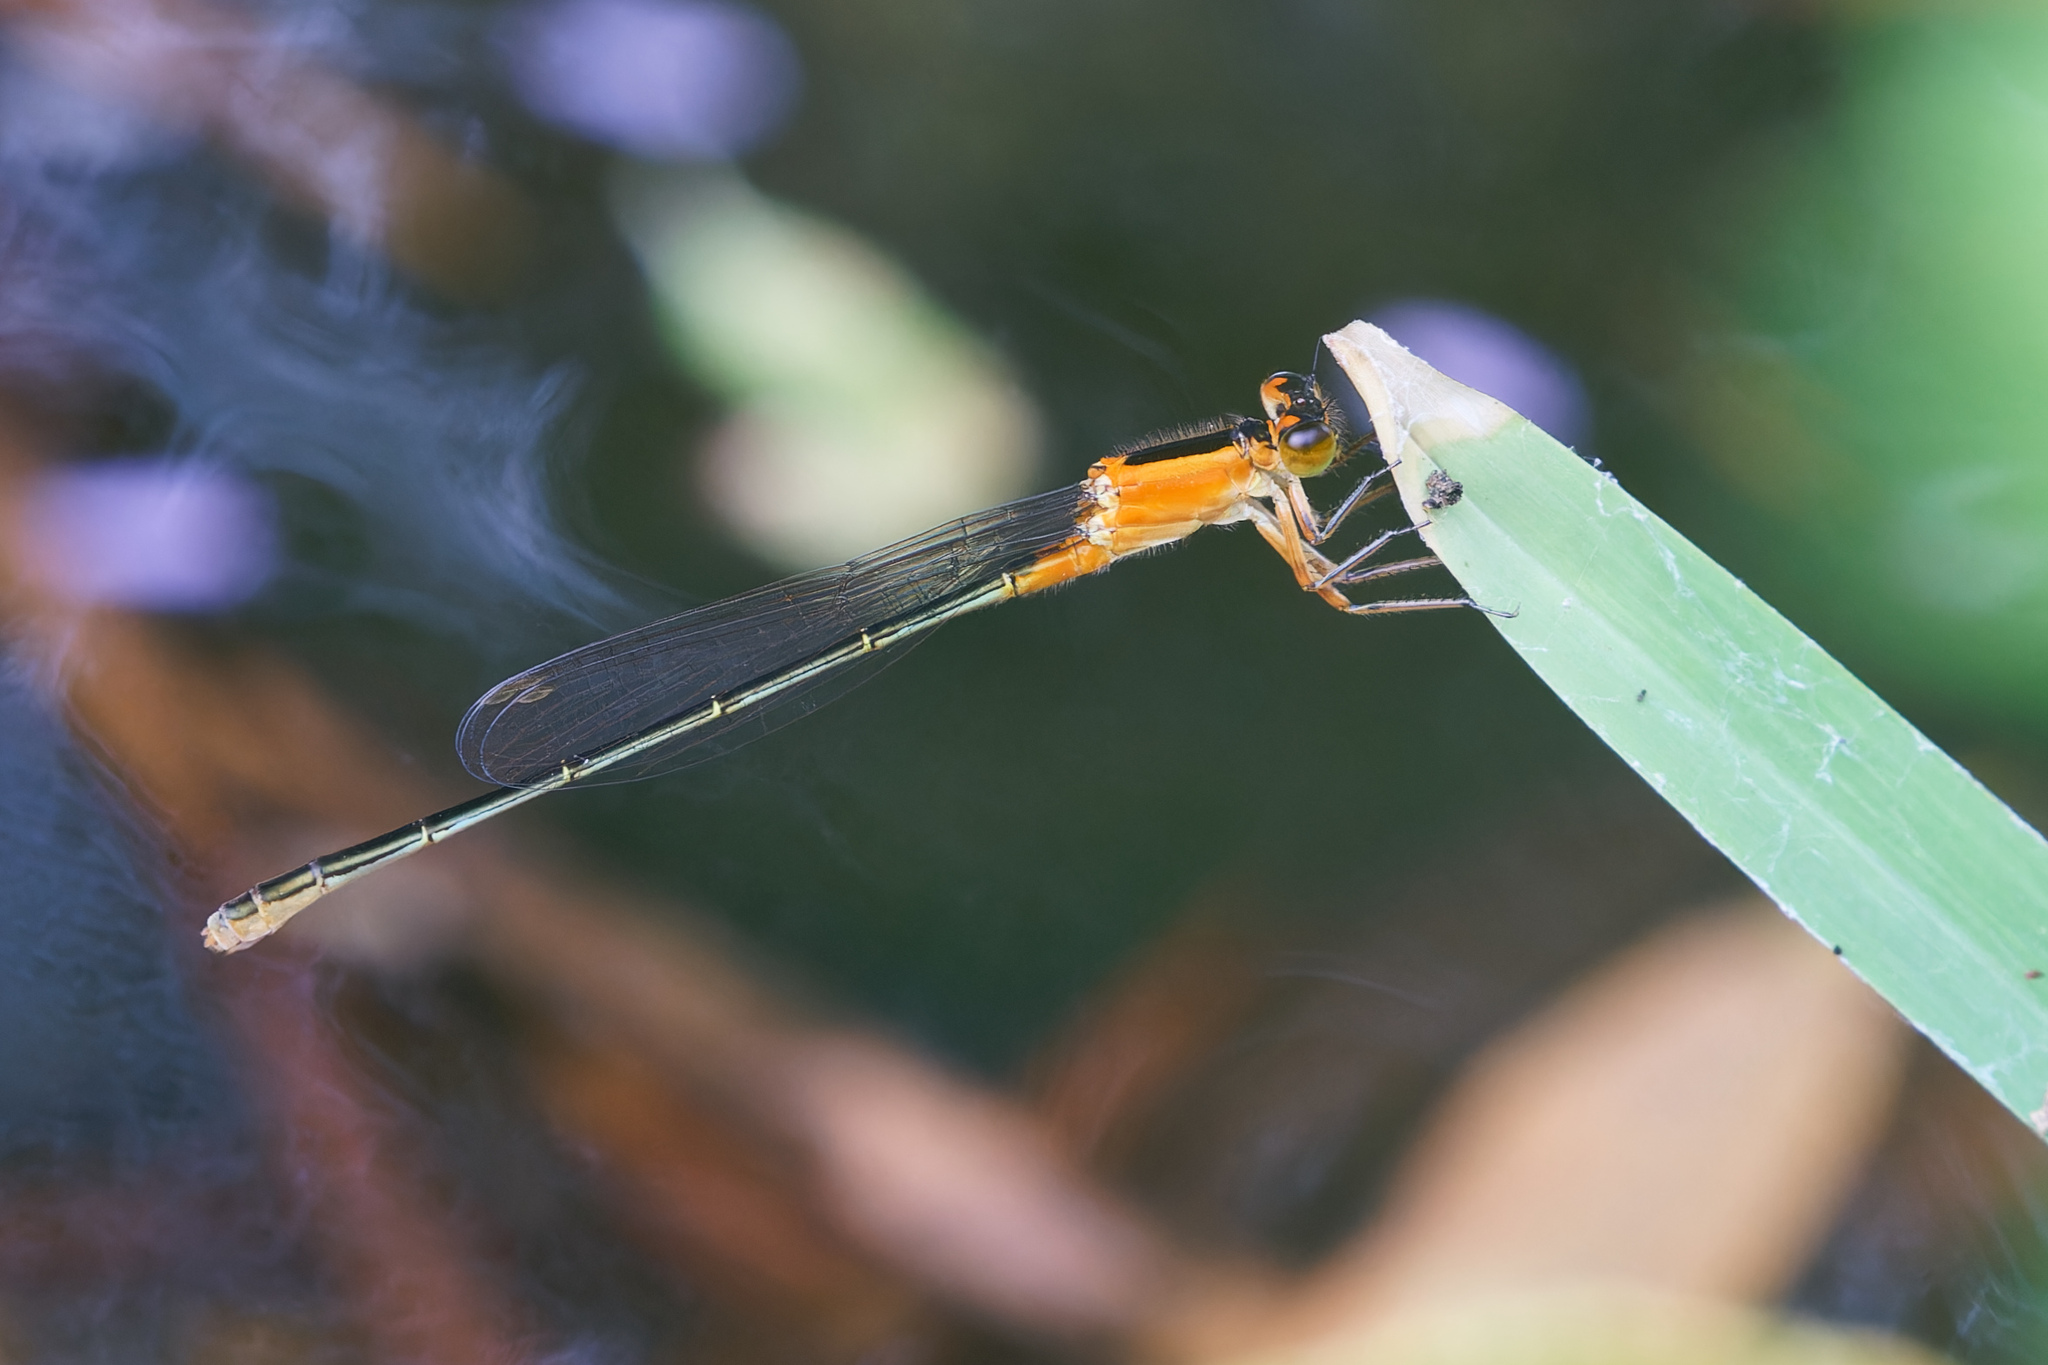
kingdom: Animalia
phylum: Arthropoda
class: Insecta
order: Odonata
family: Coenagrionidae
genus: Ischnura
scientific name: Ischnura ramburii
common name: Rambur's forktail
